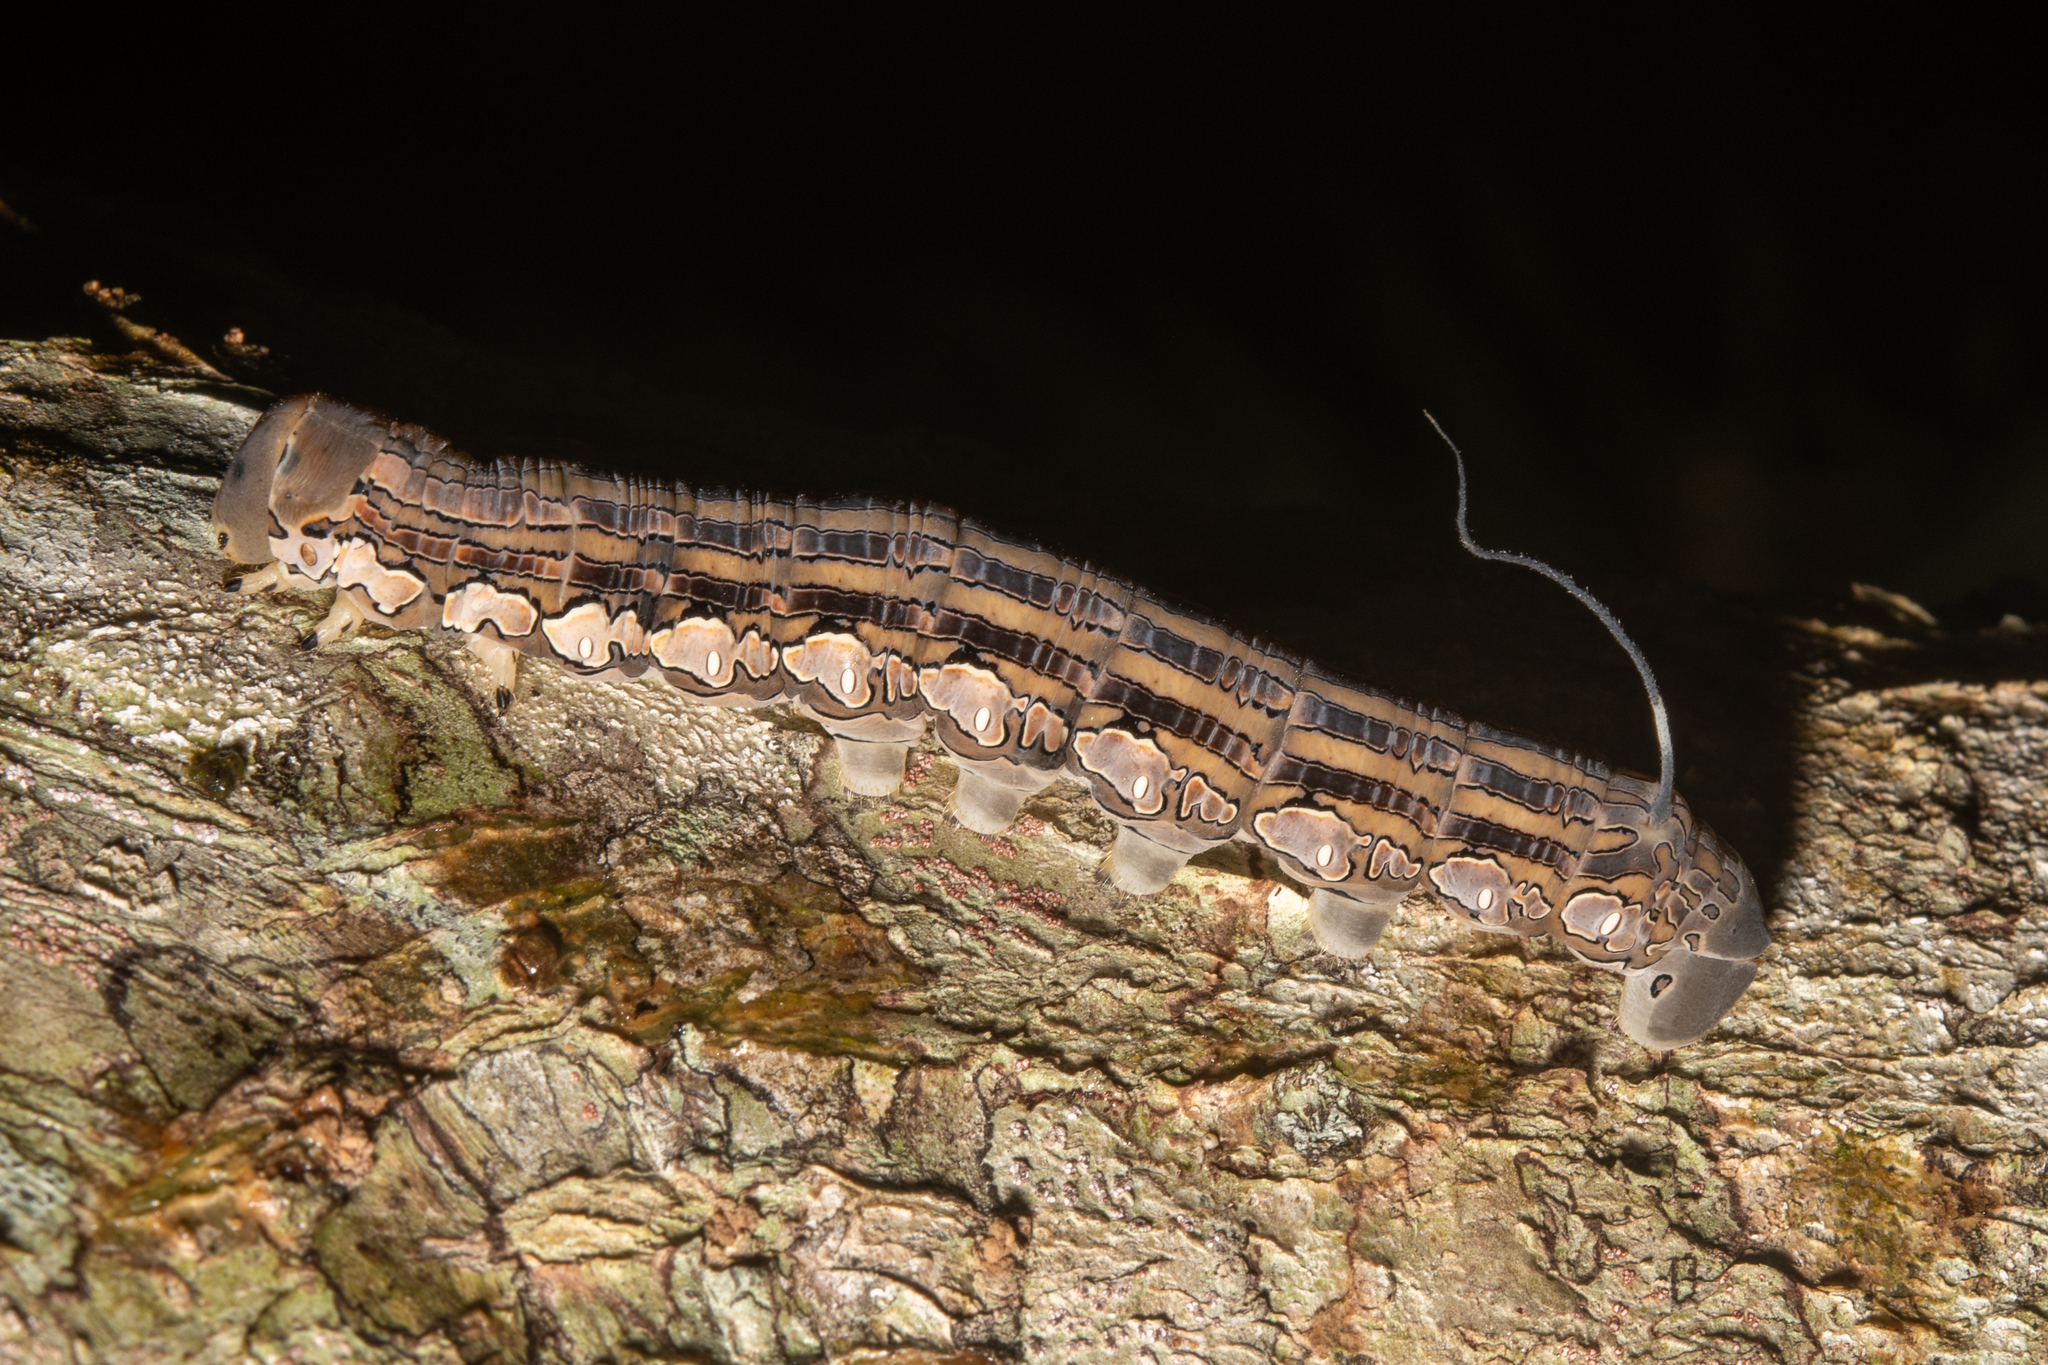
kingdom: Animalia
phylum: Arthropoda
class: Insecta
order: Lepidoptera
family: Sphingidae
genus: Isognathus
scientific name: Isognathus rimosa
